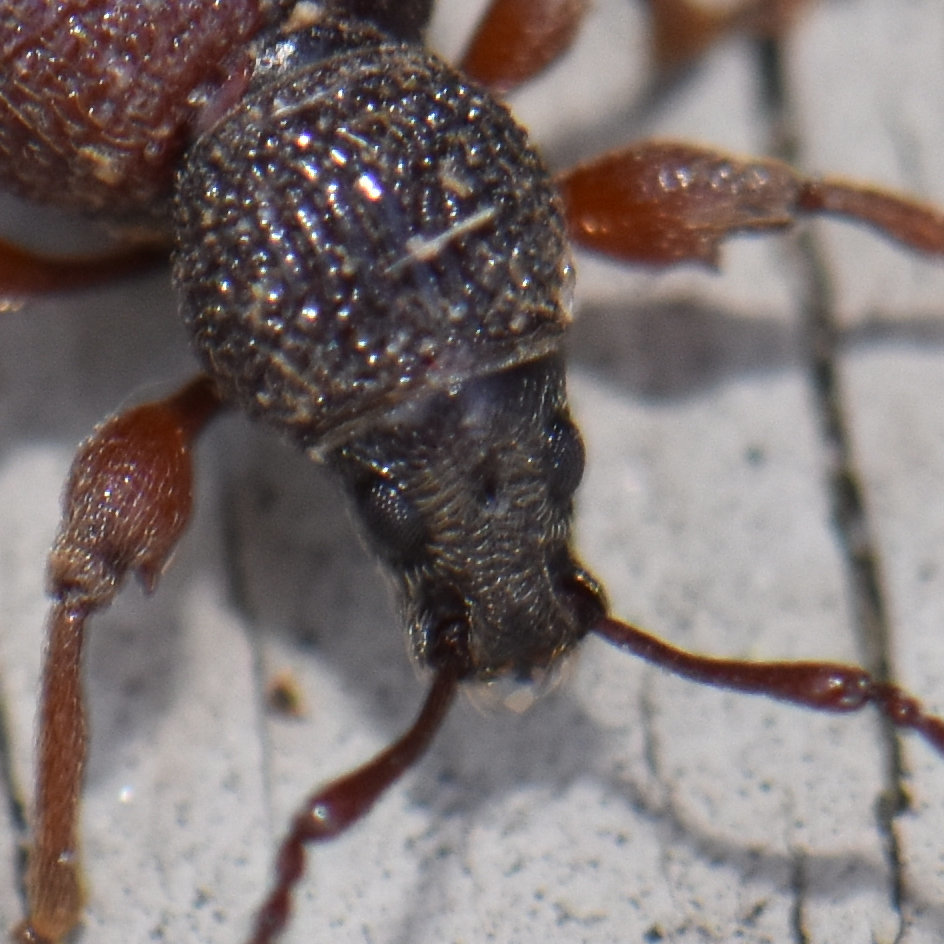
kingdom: Animalia
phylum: Arthropoda
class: Insecta
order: Coleoptera
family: Curculionidae
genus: Otiorhynchus
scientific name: Otiorhynchus ovatus
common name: Strawberry root weevil
